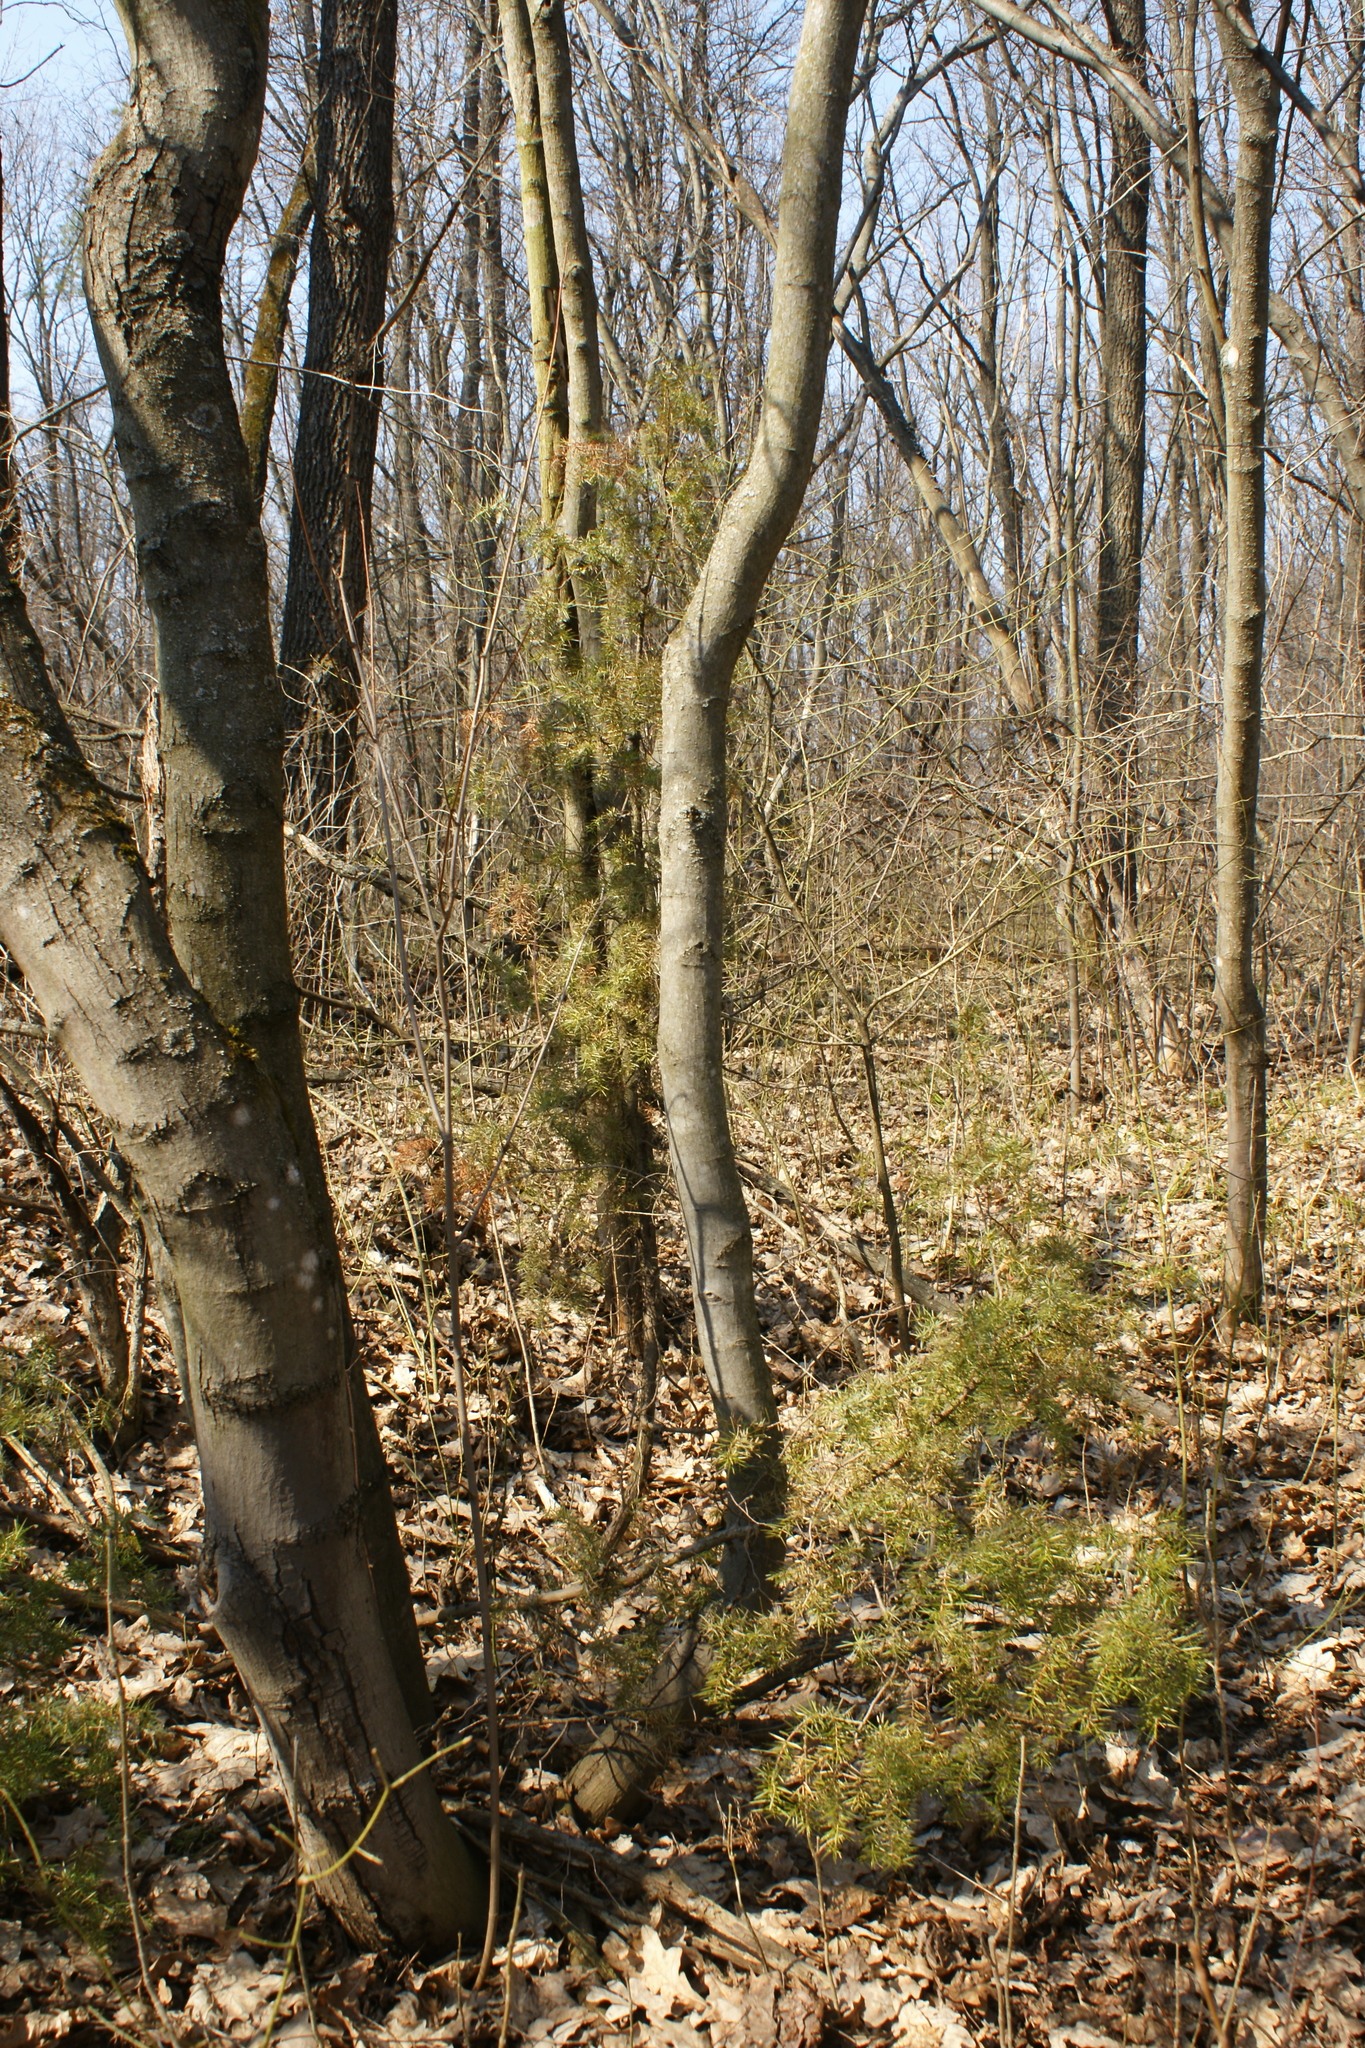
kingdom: Plantae
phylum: Tracheophyta
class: Pinopsida
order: Pinales
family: Cupressaceae
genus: Juniperus
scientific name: Juniperus communis
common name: Common juniper
